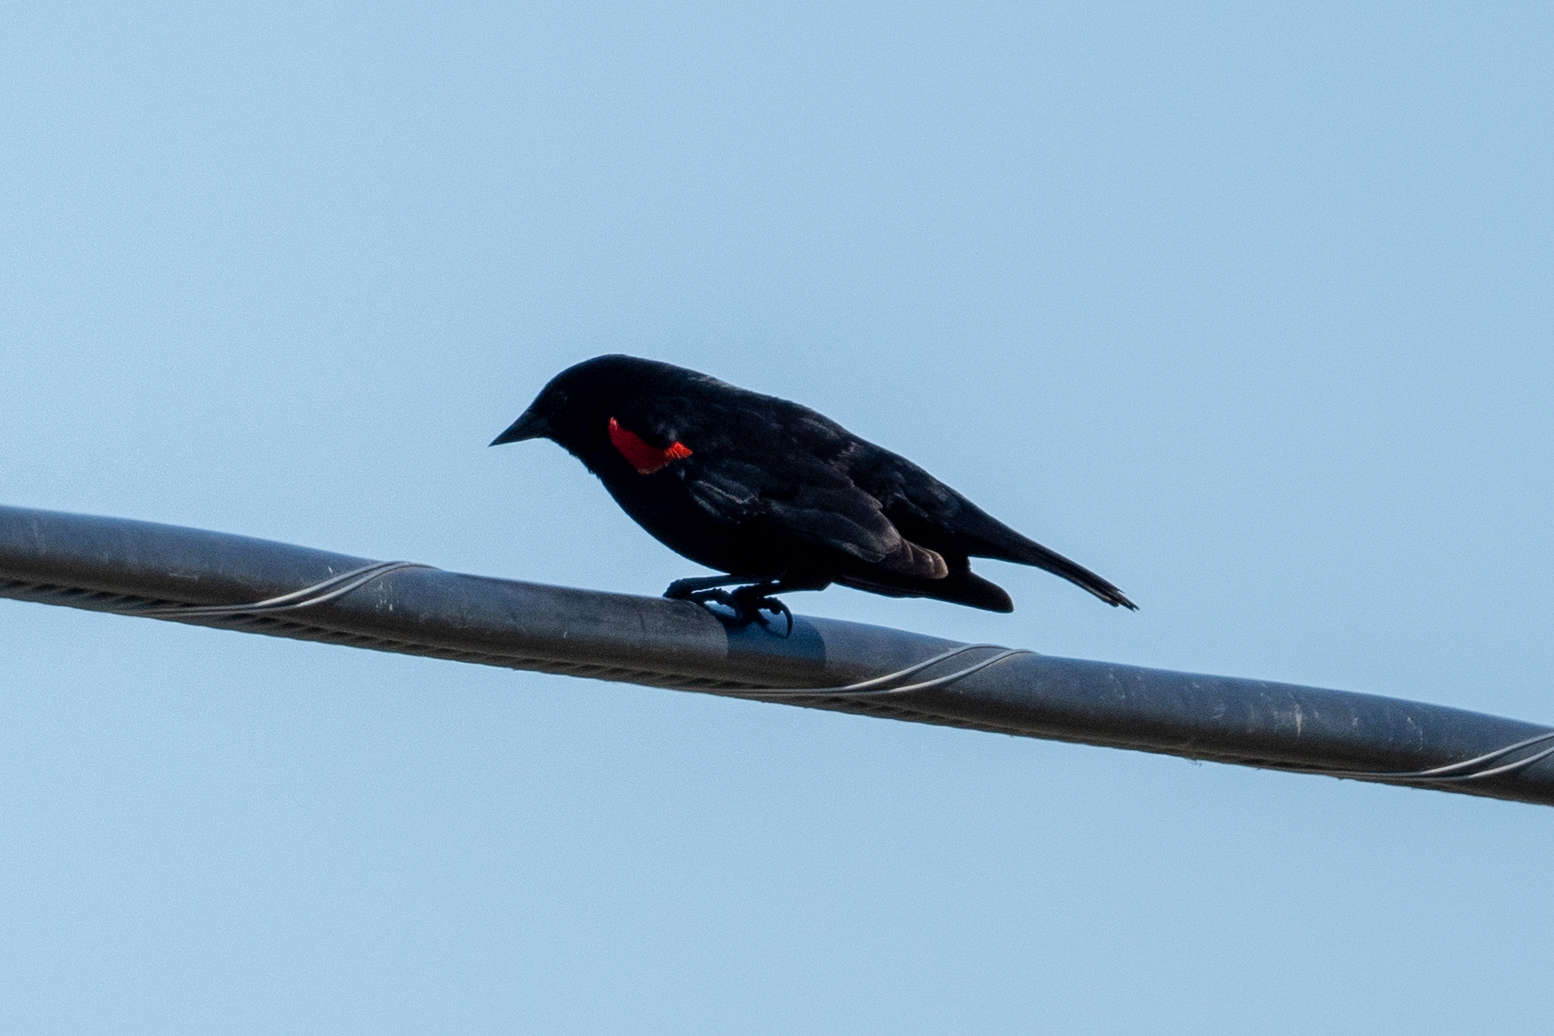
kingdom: Animalia
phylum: Chordata
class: Aves
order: Passeriformes
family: Icteridae
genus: Agelaius
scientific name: Agelaius phoeniceus
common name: Red-winged blackbird
